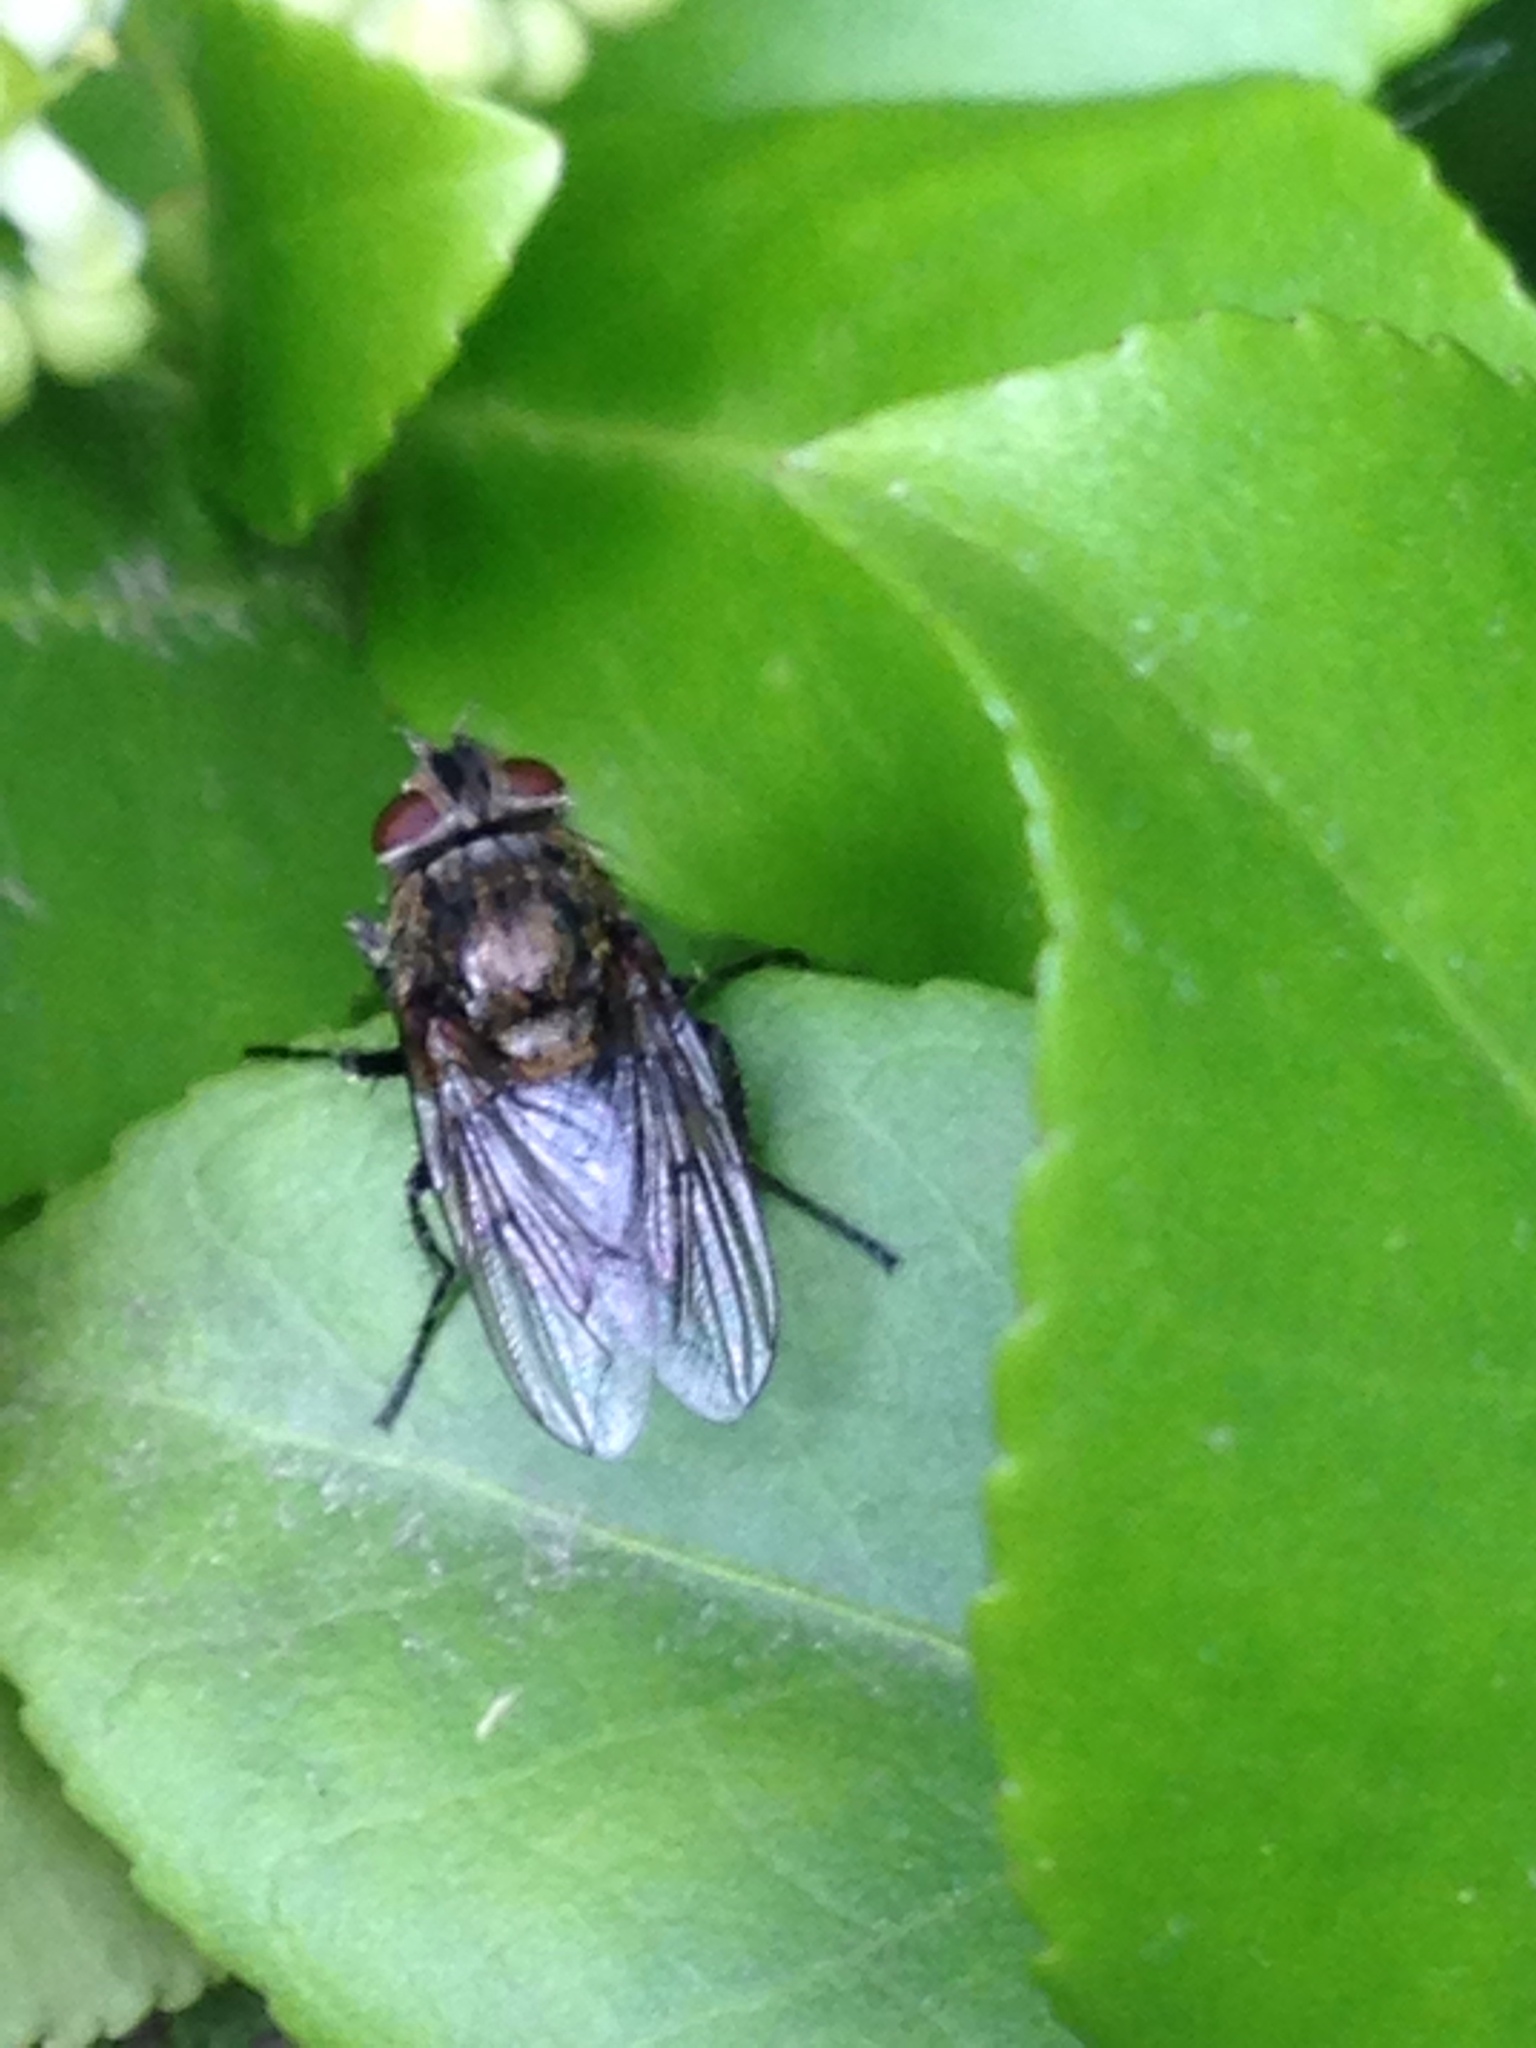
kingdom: Animalia
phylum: Arthropoda
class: Insecta
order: Diptera
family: Polleniidae
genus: Pollenia
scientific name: Pollenia
